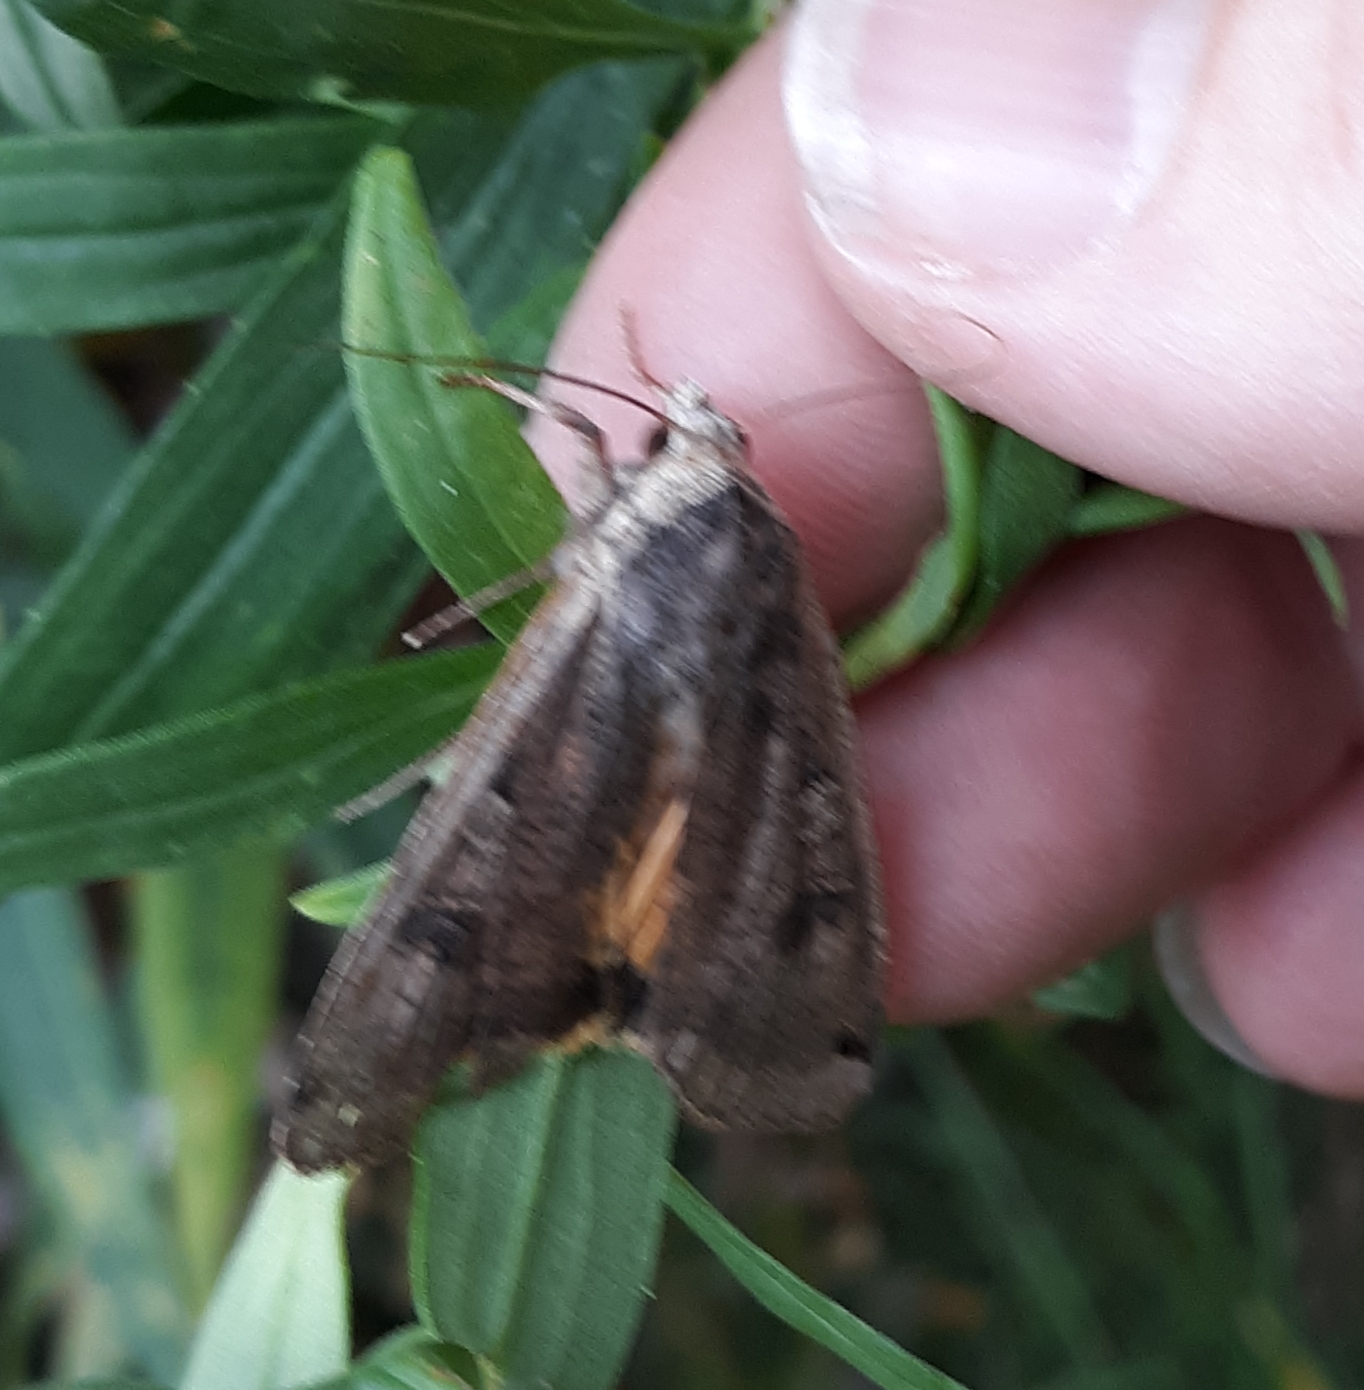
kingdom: Animalia
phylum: Arthropoda
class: Insecta
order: Lepidoptera
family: Noctuidae
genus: Noctua
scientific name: Noctua pronuba
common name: Large yellow underwing
